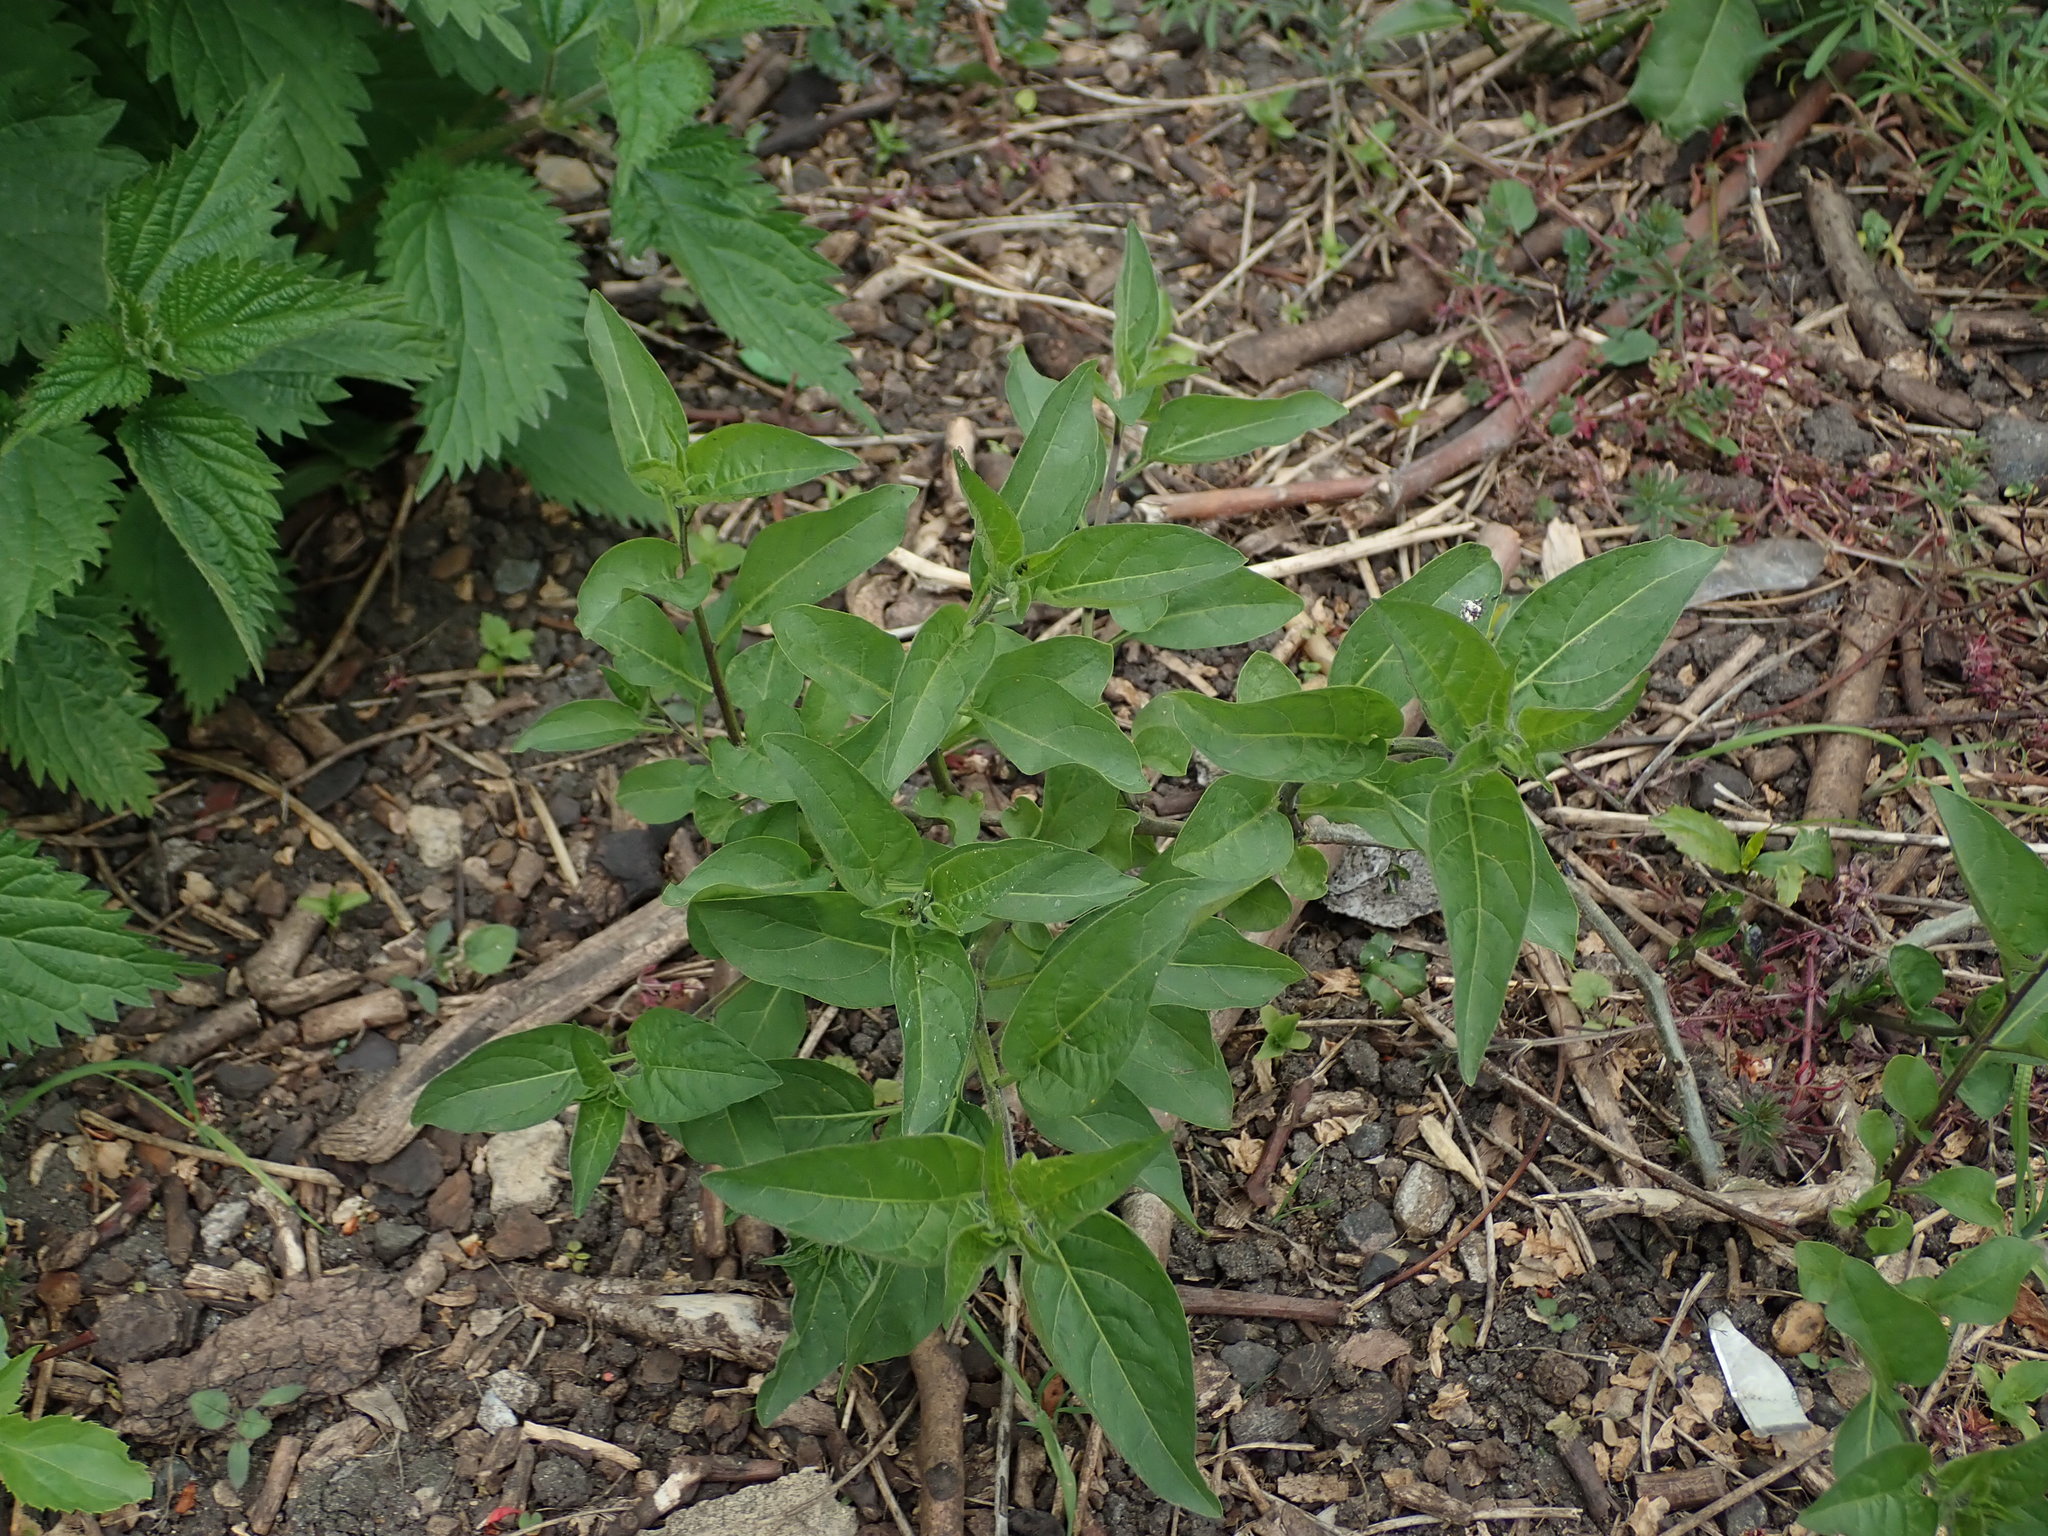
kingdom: Plantae
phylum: Tracheophyta
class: Magnoliopsida
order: Solanales
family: Solanaceae
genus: Solanum
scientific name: Solanum chenopodioides
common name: Tall nightshade
